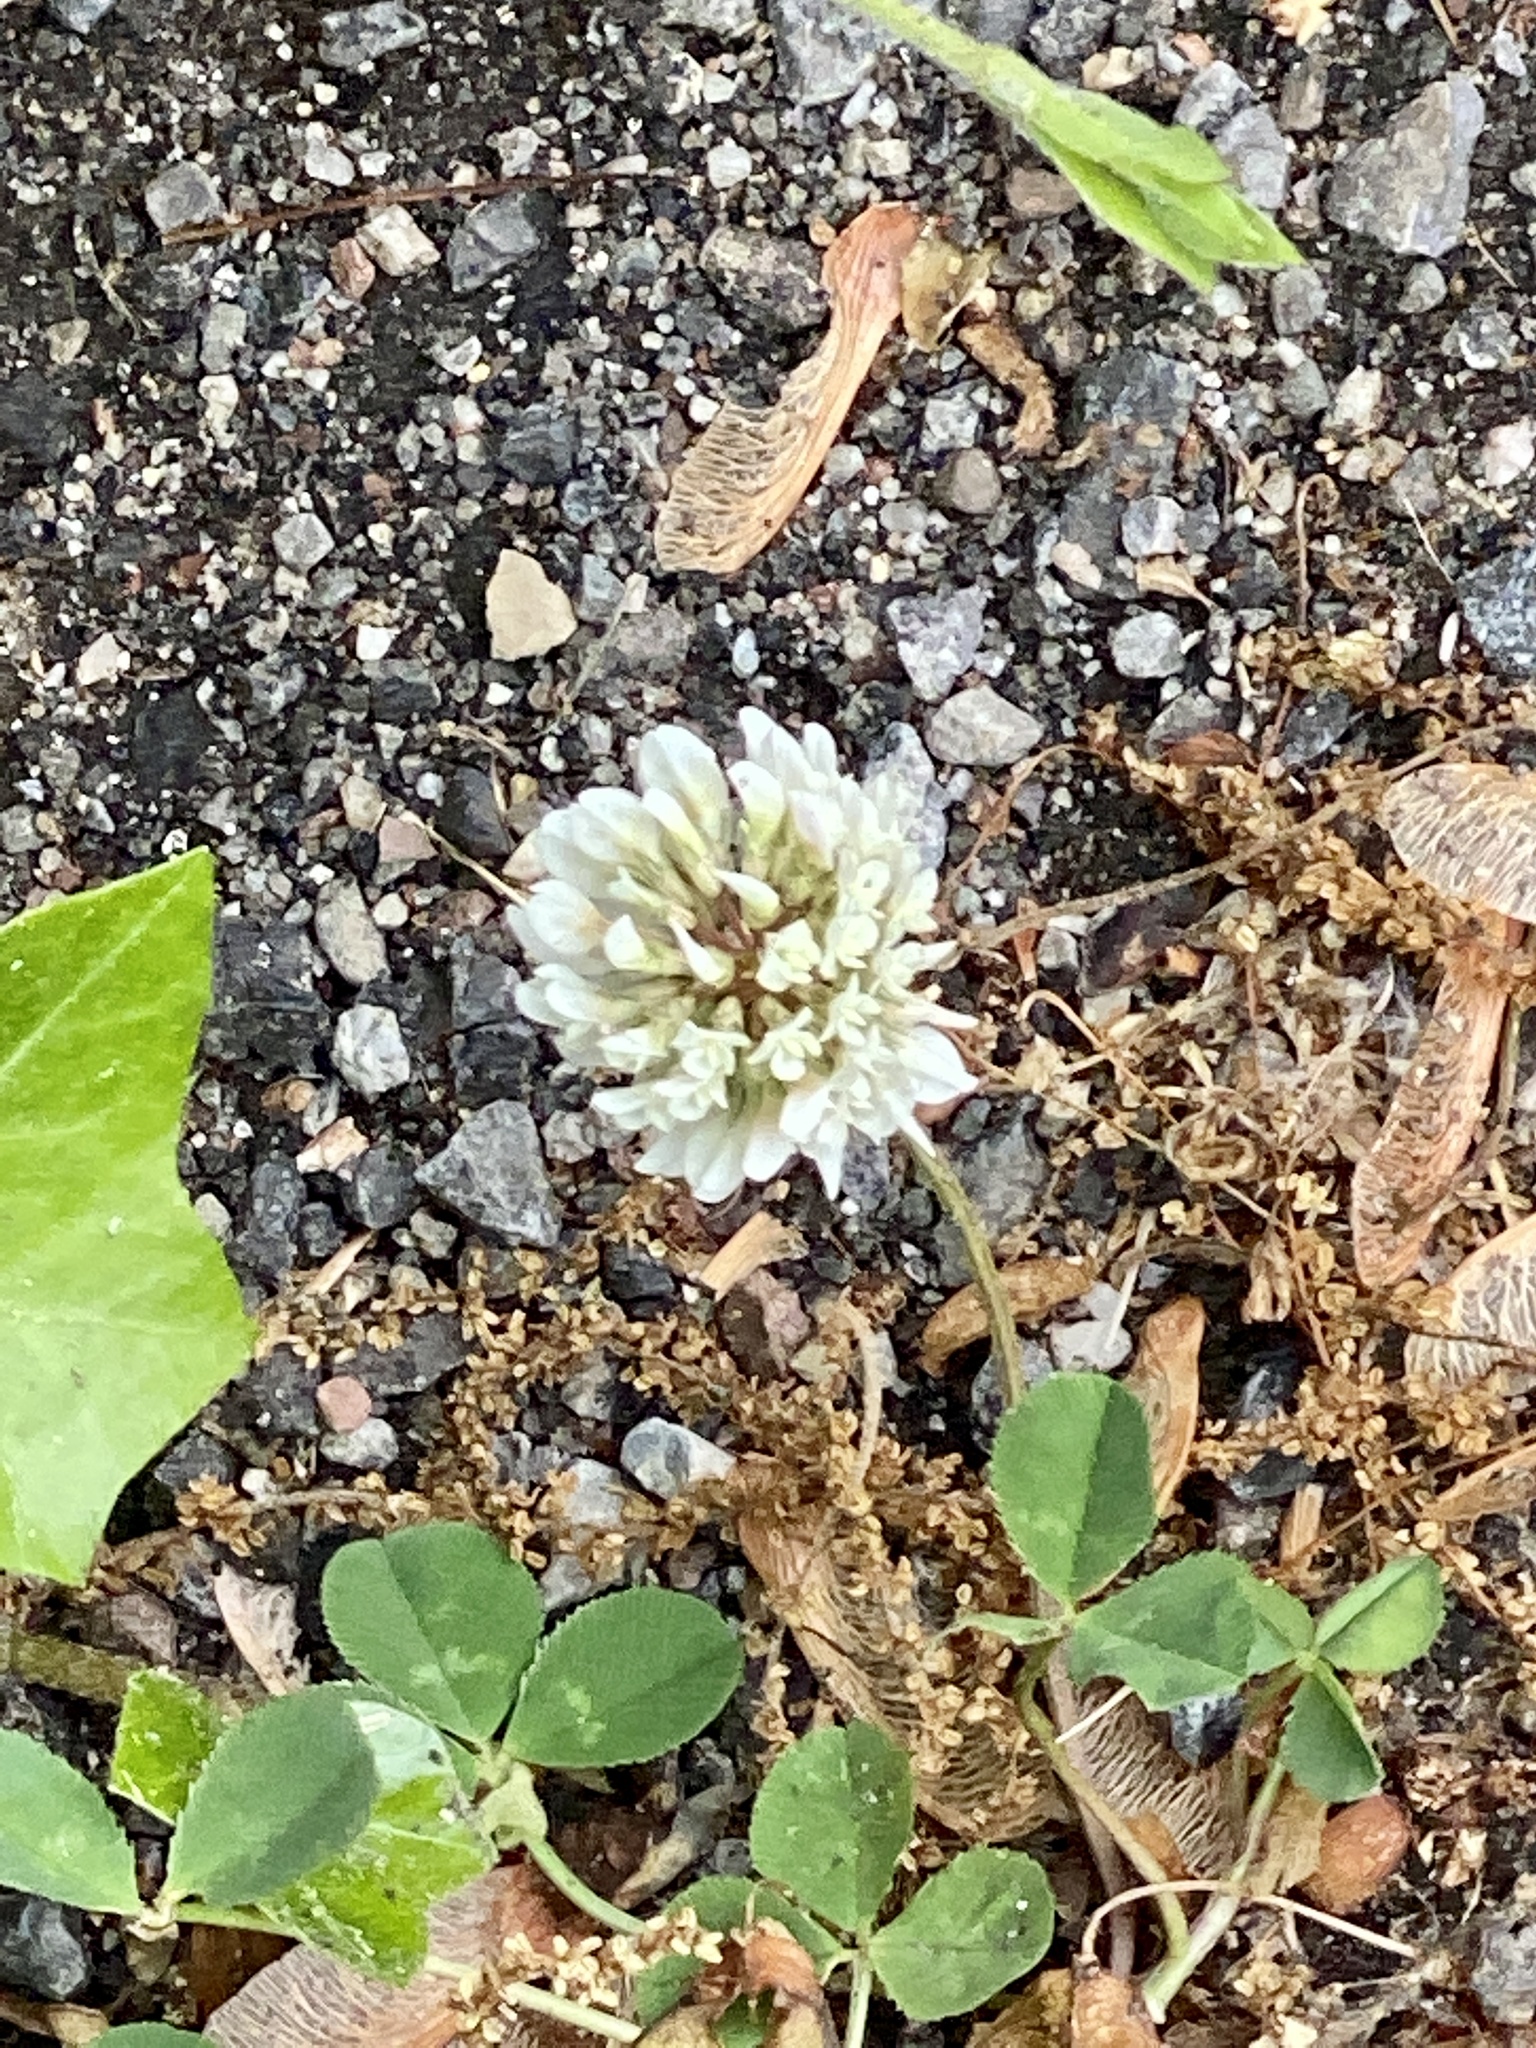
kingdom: Plantae
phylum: Tracheophyta
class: Magnoliopsida
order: Fabales
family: Fabaceae
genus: Trifolium
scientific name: Trifolium repens
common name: White clover
